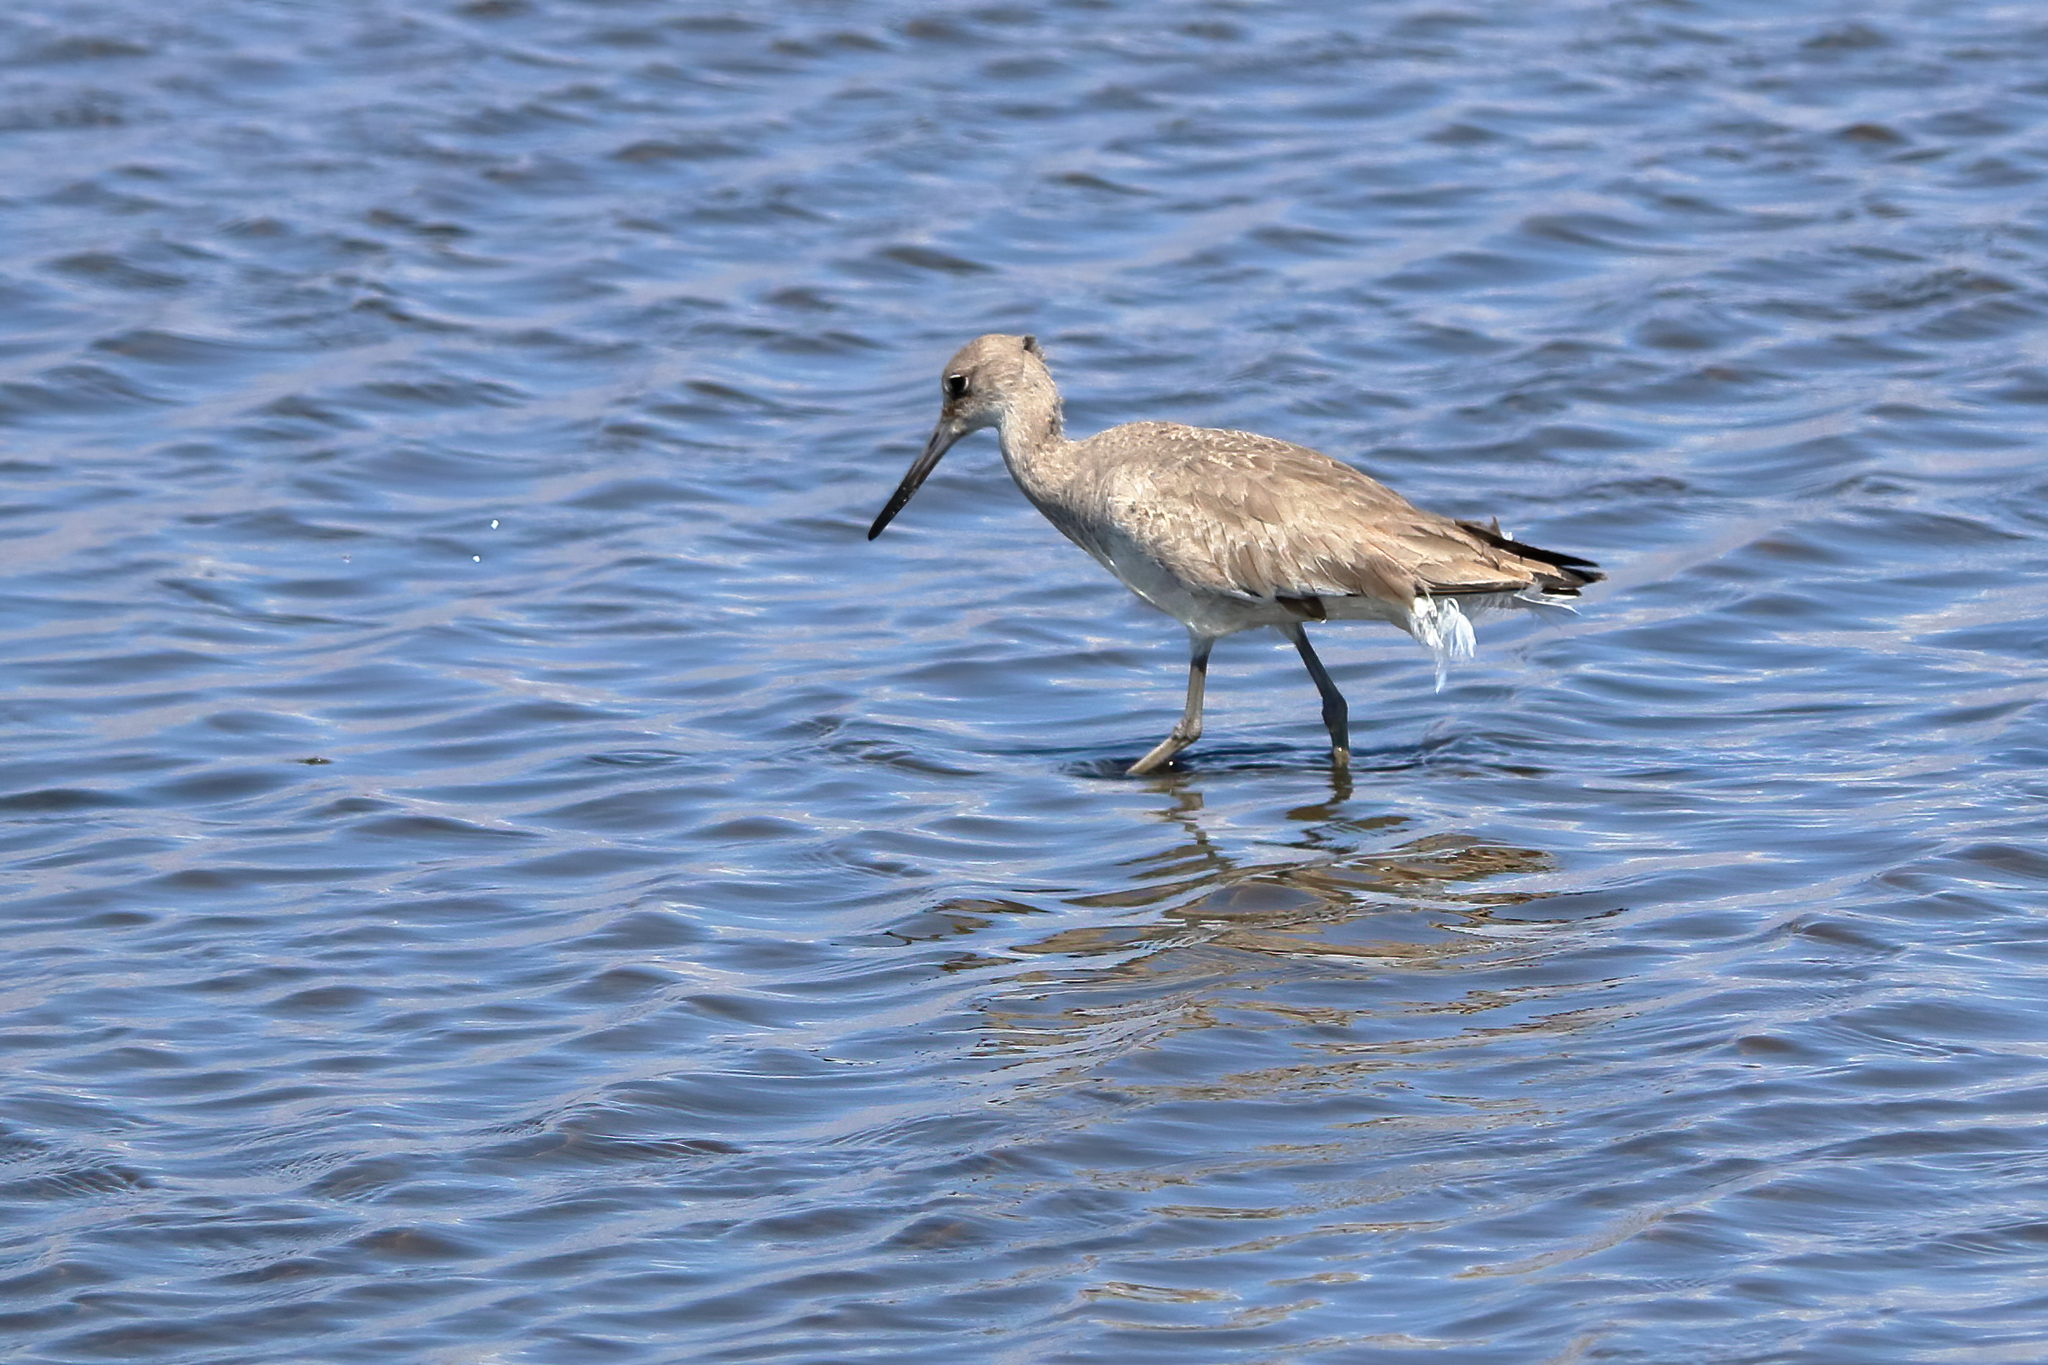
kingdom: Animalia
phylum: Chordata
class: Aves
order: Charadriiformes
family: Scolopacidae
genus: Tringa
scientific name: Tringa semipalmata
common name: Willet
